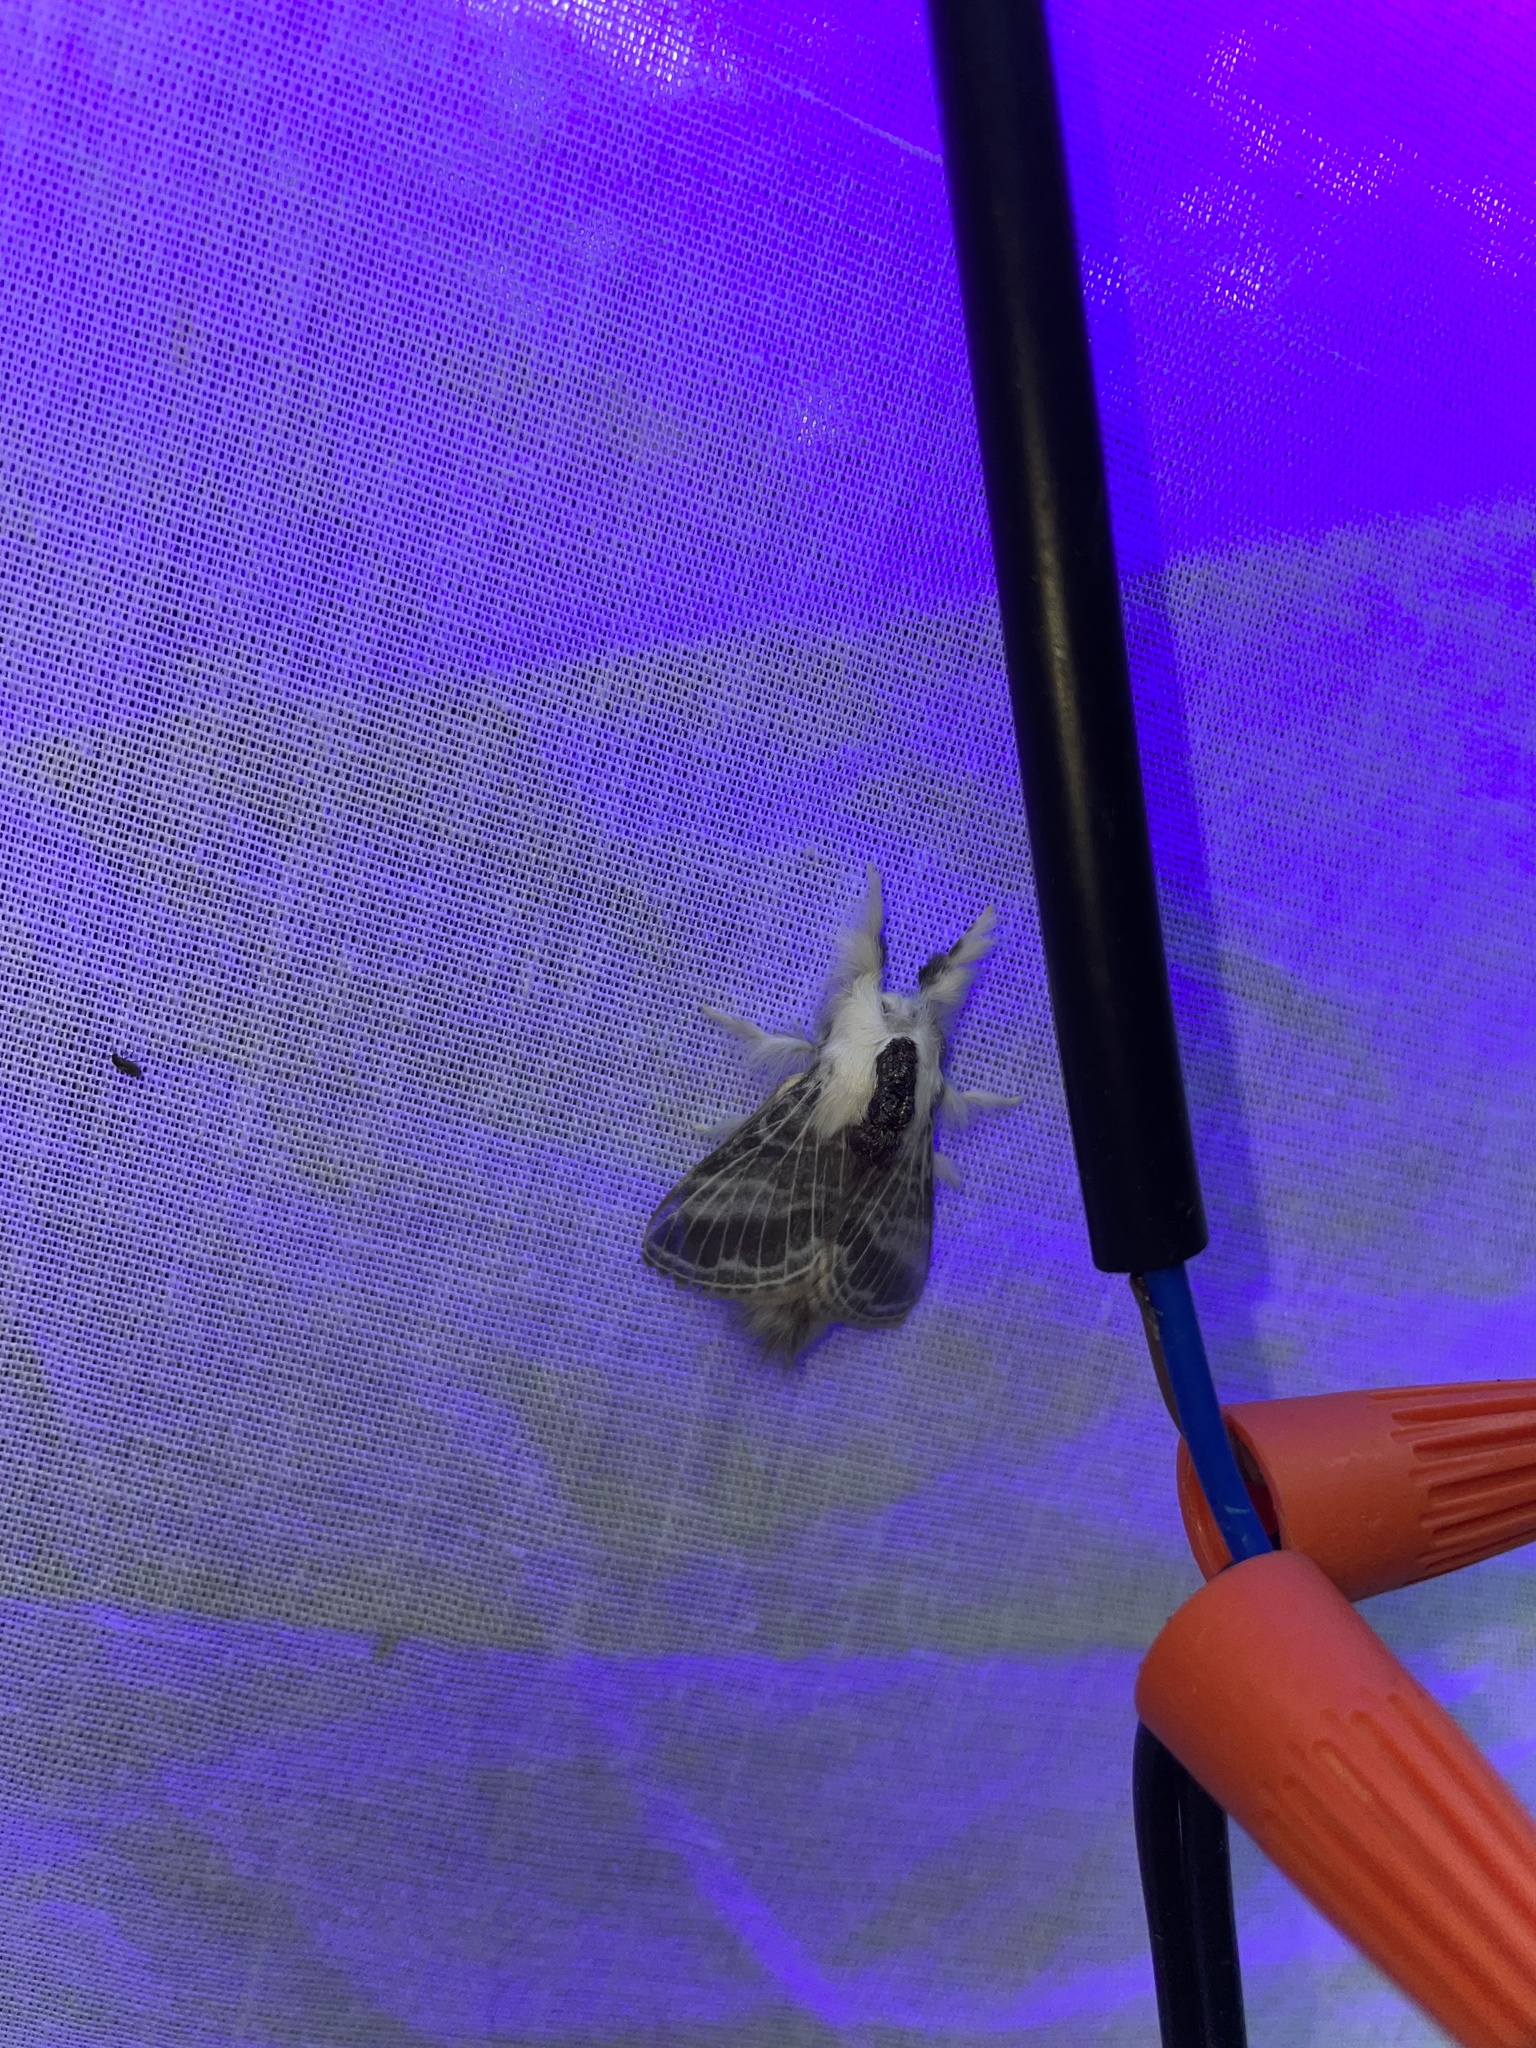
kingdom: Animalia
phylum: Arthropoda
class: Insecta
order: Lepidoptera
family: Lasiocampidae
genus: Tolype
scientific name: Tolype velleda
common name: Large tolype moth
